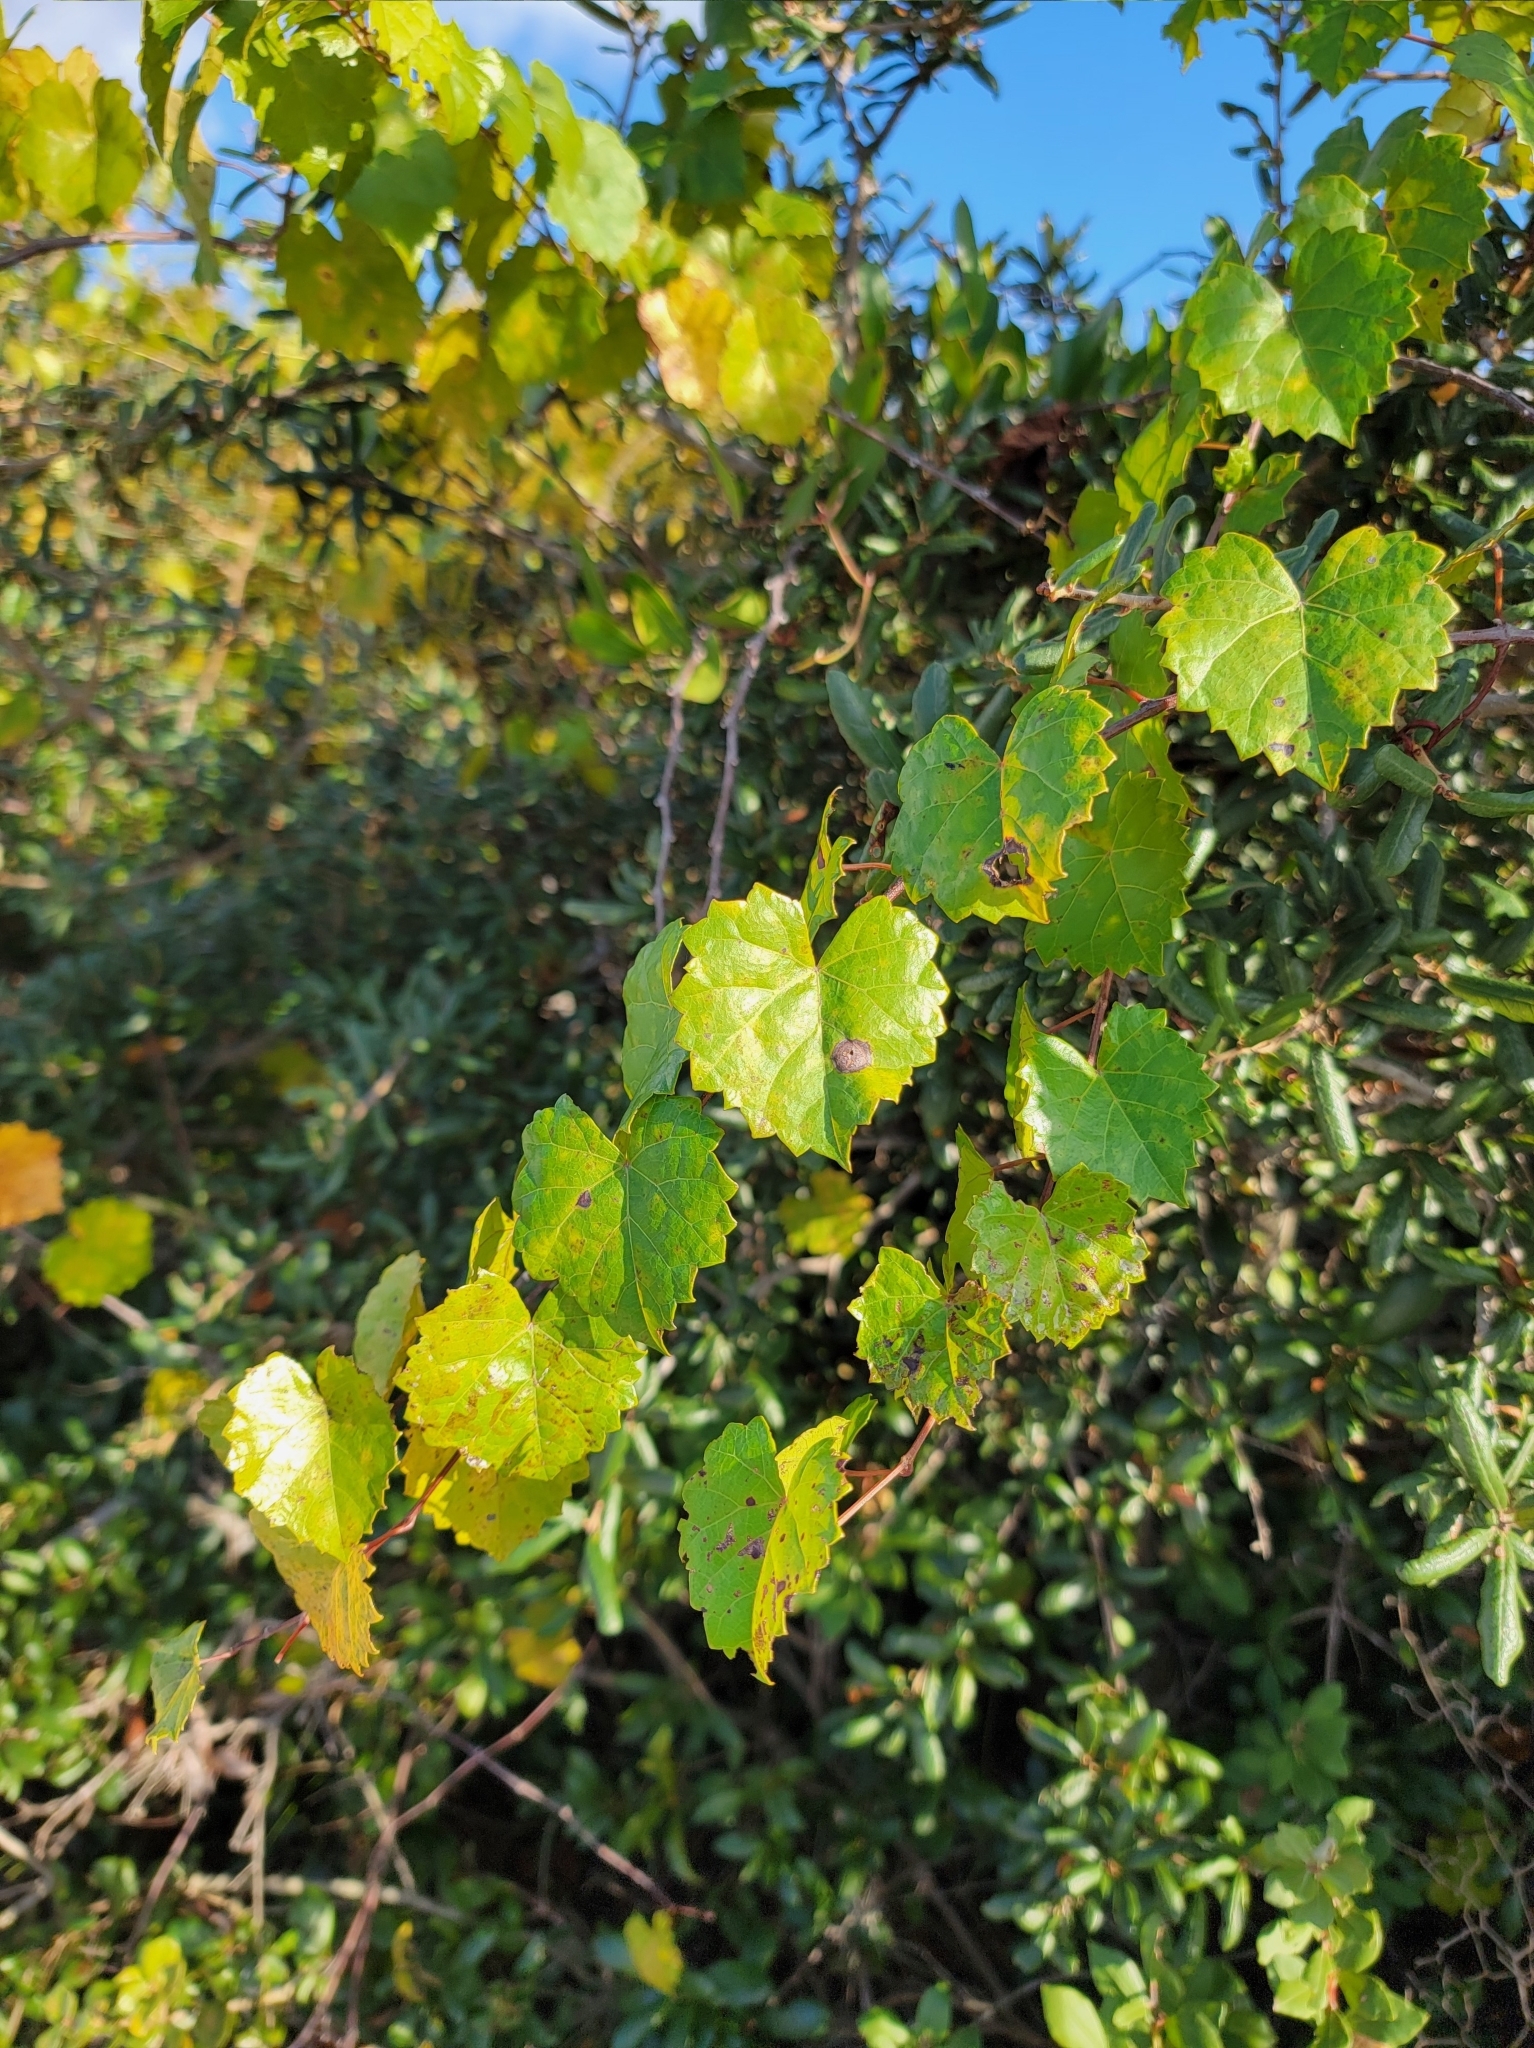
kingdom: Plantae
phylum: Tracheophyta
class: Magnoliopsida
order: Vitales
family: Vitaceae
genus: Vitis
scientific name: Vitis rotundifolia
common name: Muscadine grape
